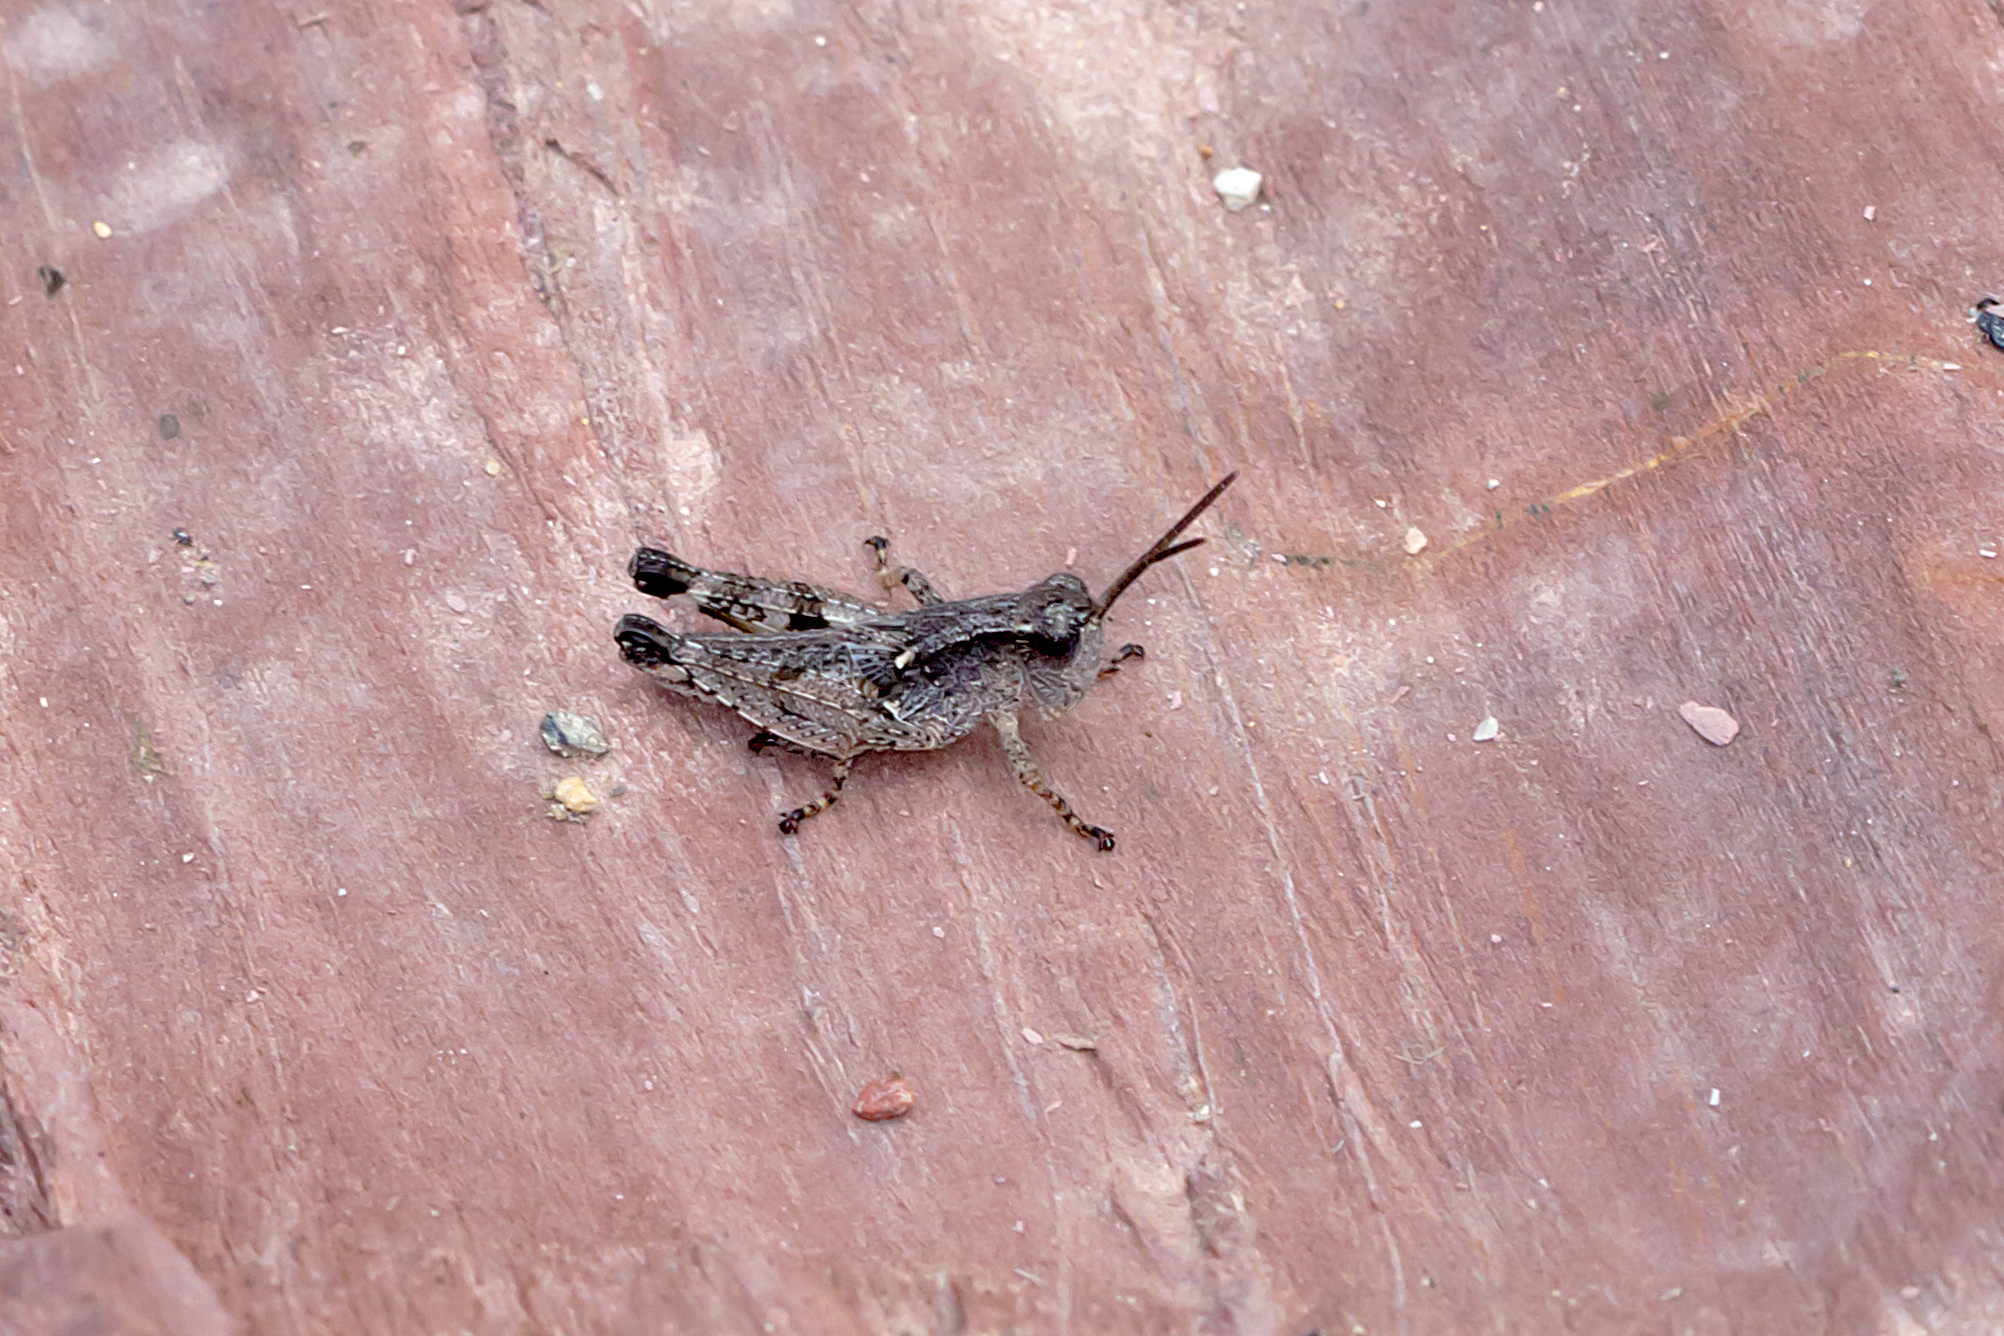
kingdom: Animalia
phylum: Arthropoda
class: Insecta
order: Orthoptera
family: Acrididae
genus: Phaulacridium
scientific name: Phaulacridium vittatum
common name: Wingless grasshopper
